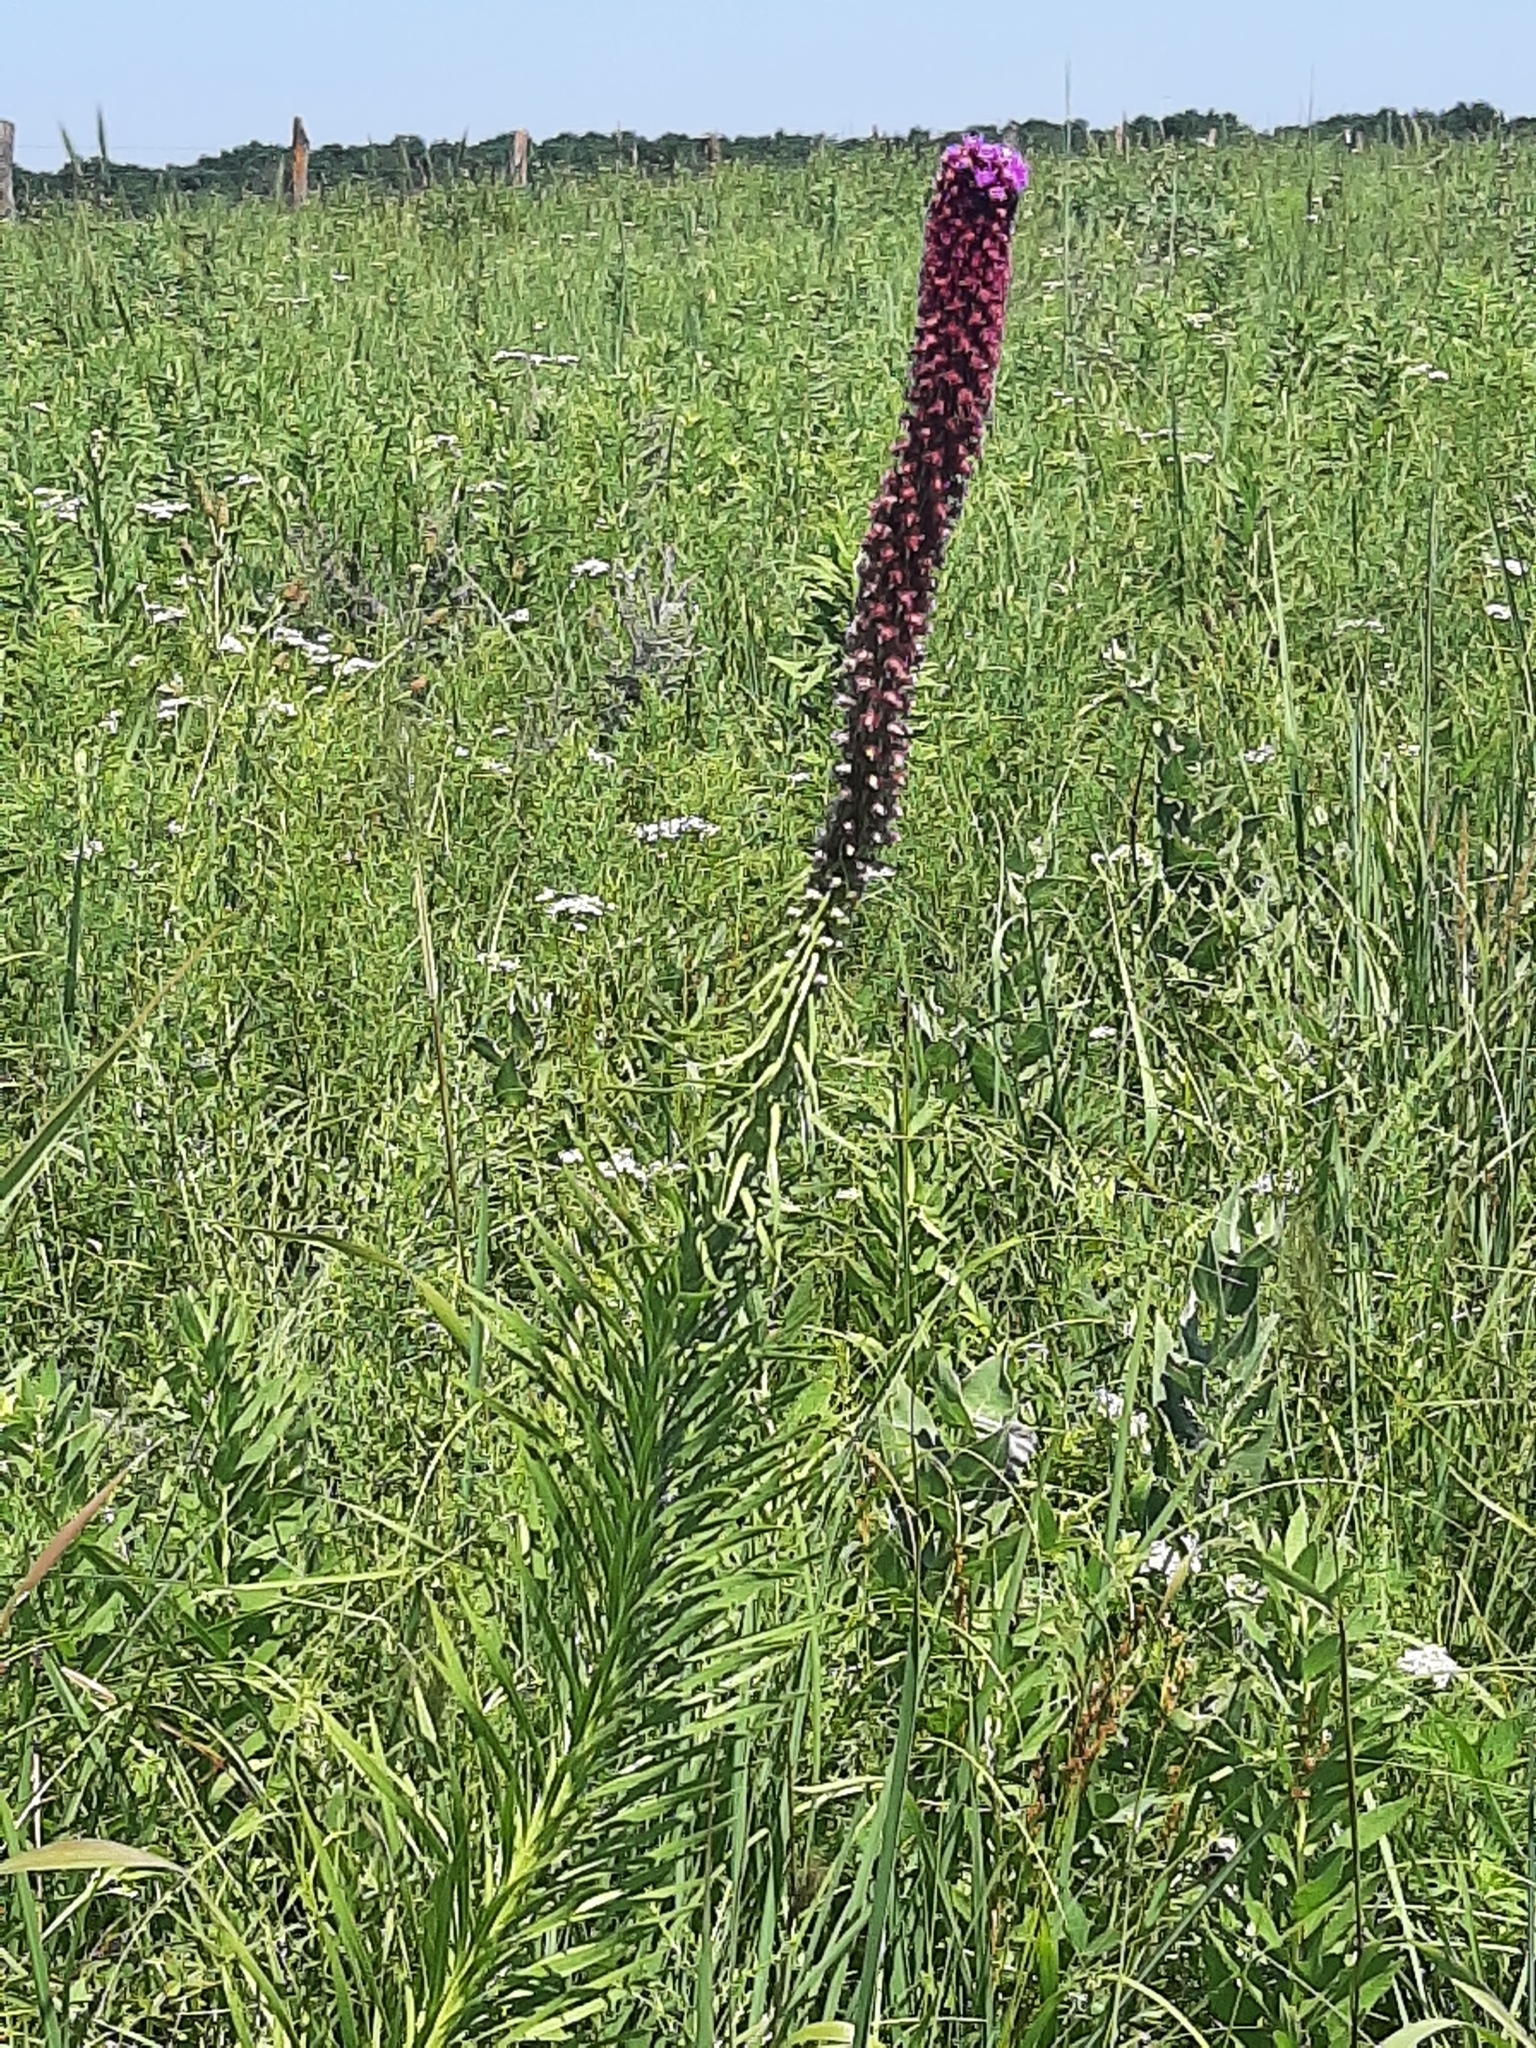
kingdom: Plantae
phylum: Tracheophyta
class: Magnoliopsida
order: Asterales
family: Asteraceae
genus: Liatris
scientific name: Liatris pycnostachya
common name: Cattail gayfeather
